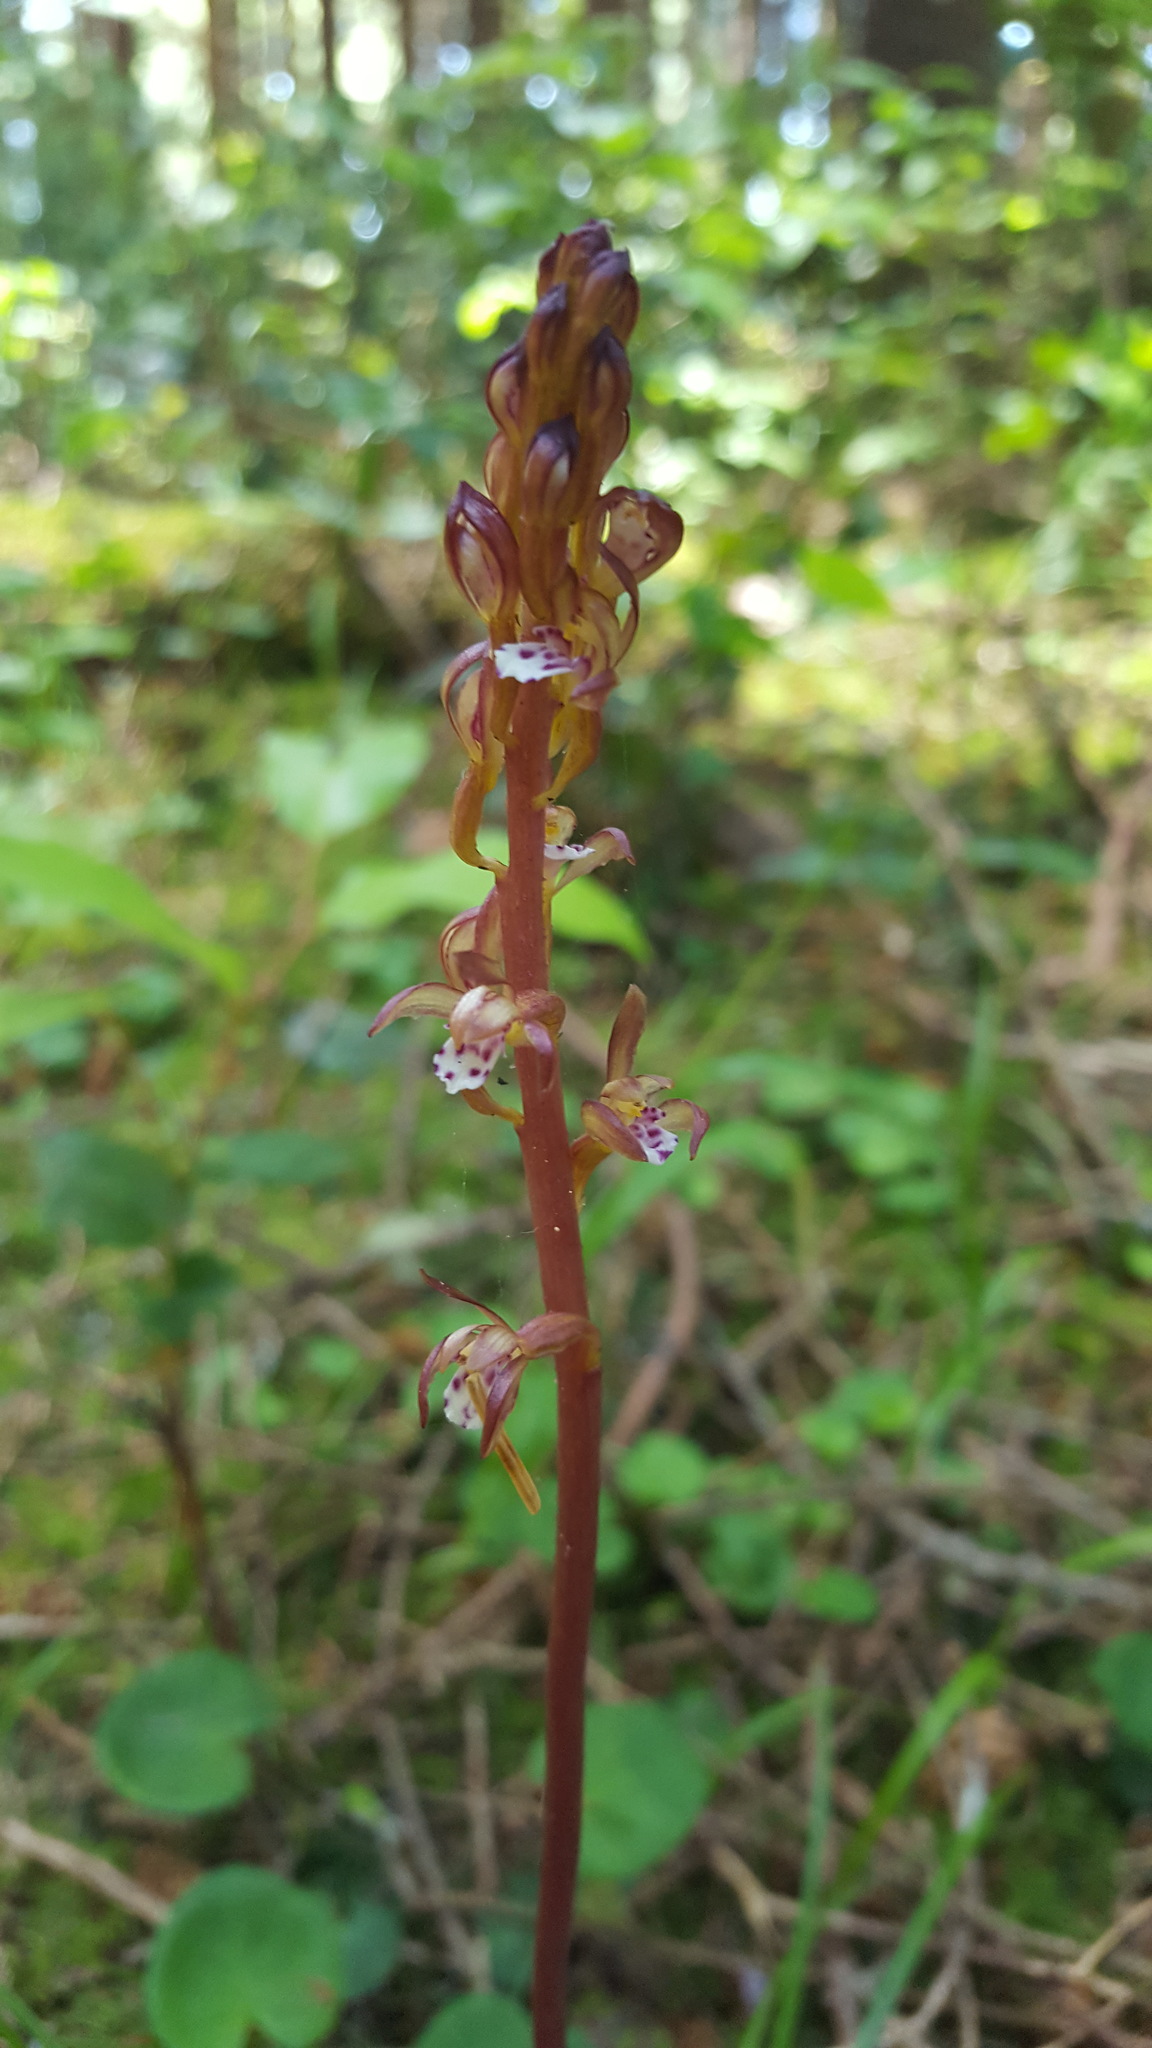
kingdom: Plantae
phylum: Tracheophyta
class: Liliopsida
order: Asparagales
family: Orchidaceae
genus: Corallorhiza
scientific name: Corallorhiza maculata
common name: Spotted coralroot
